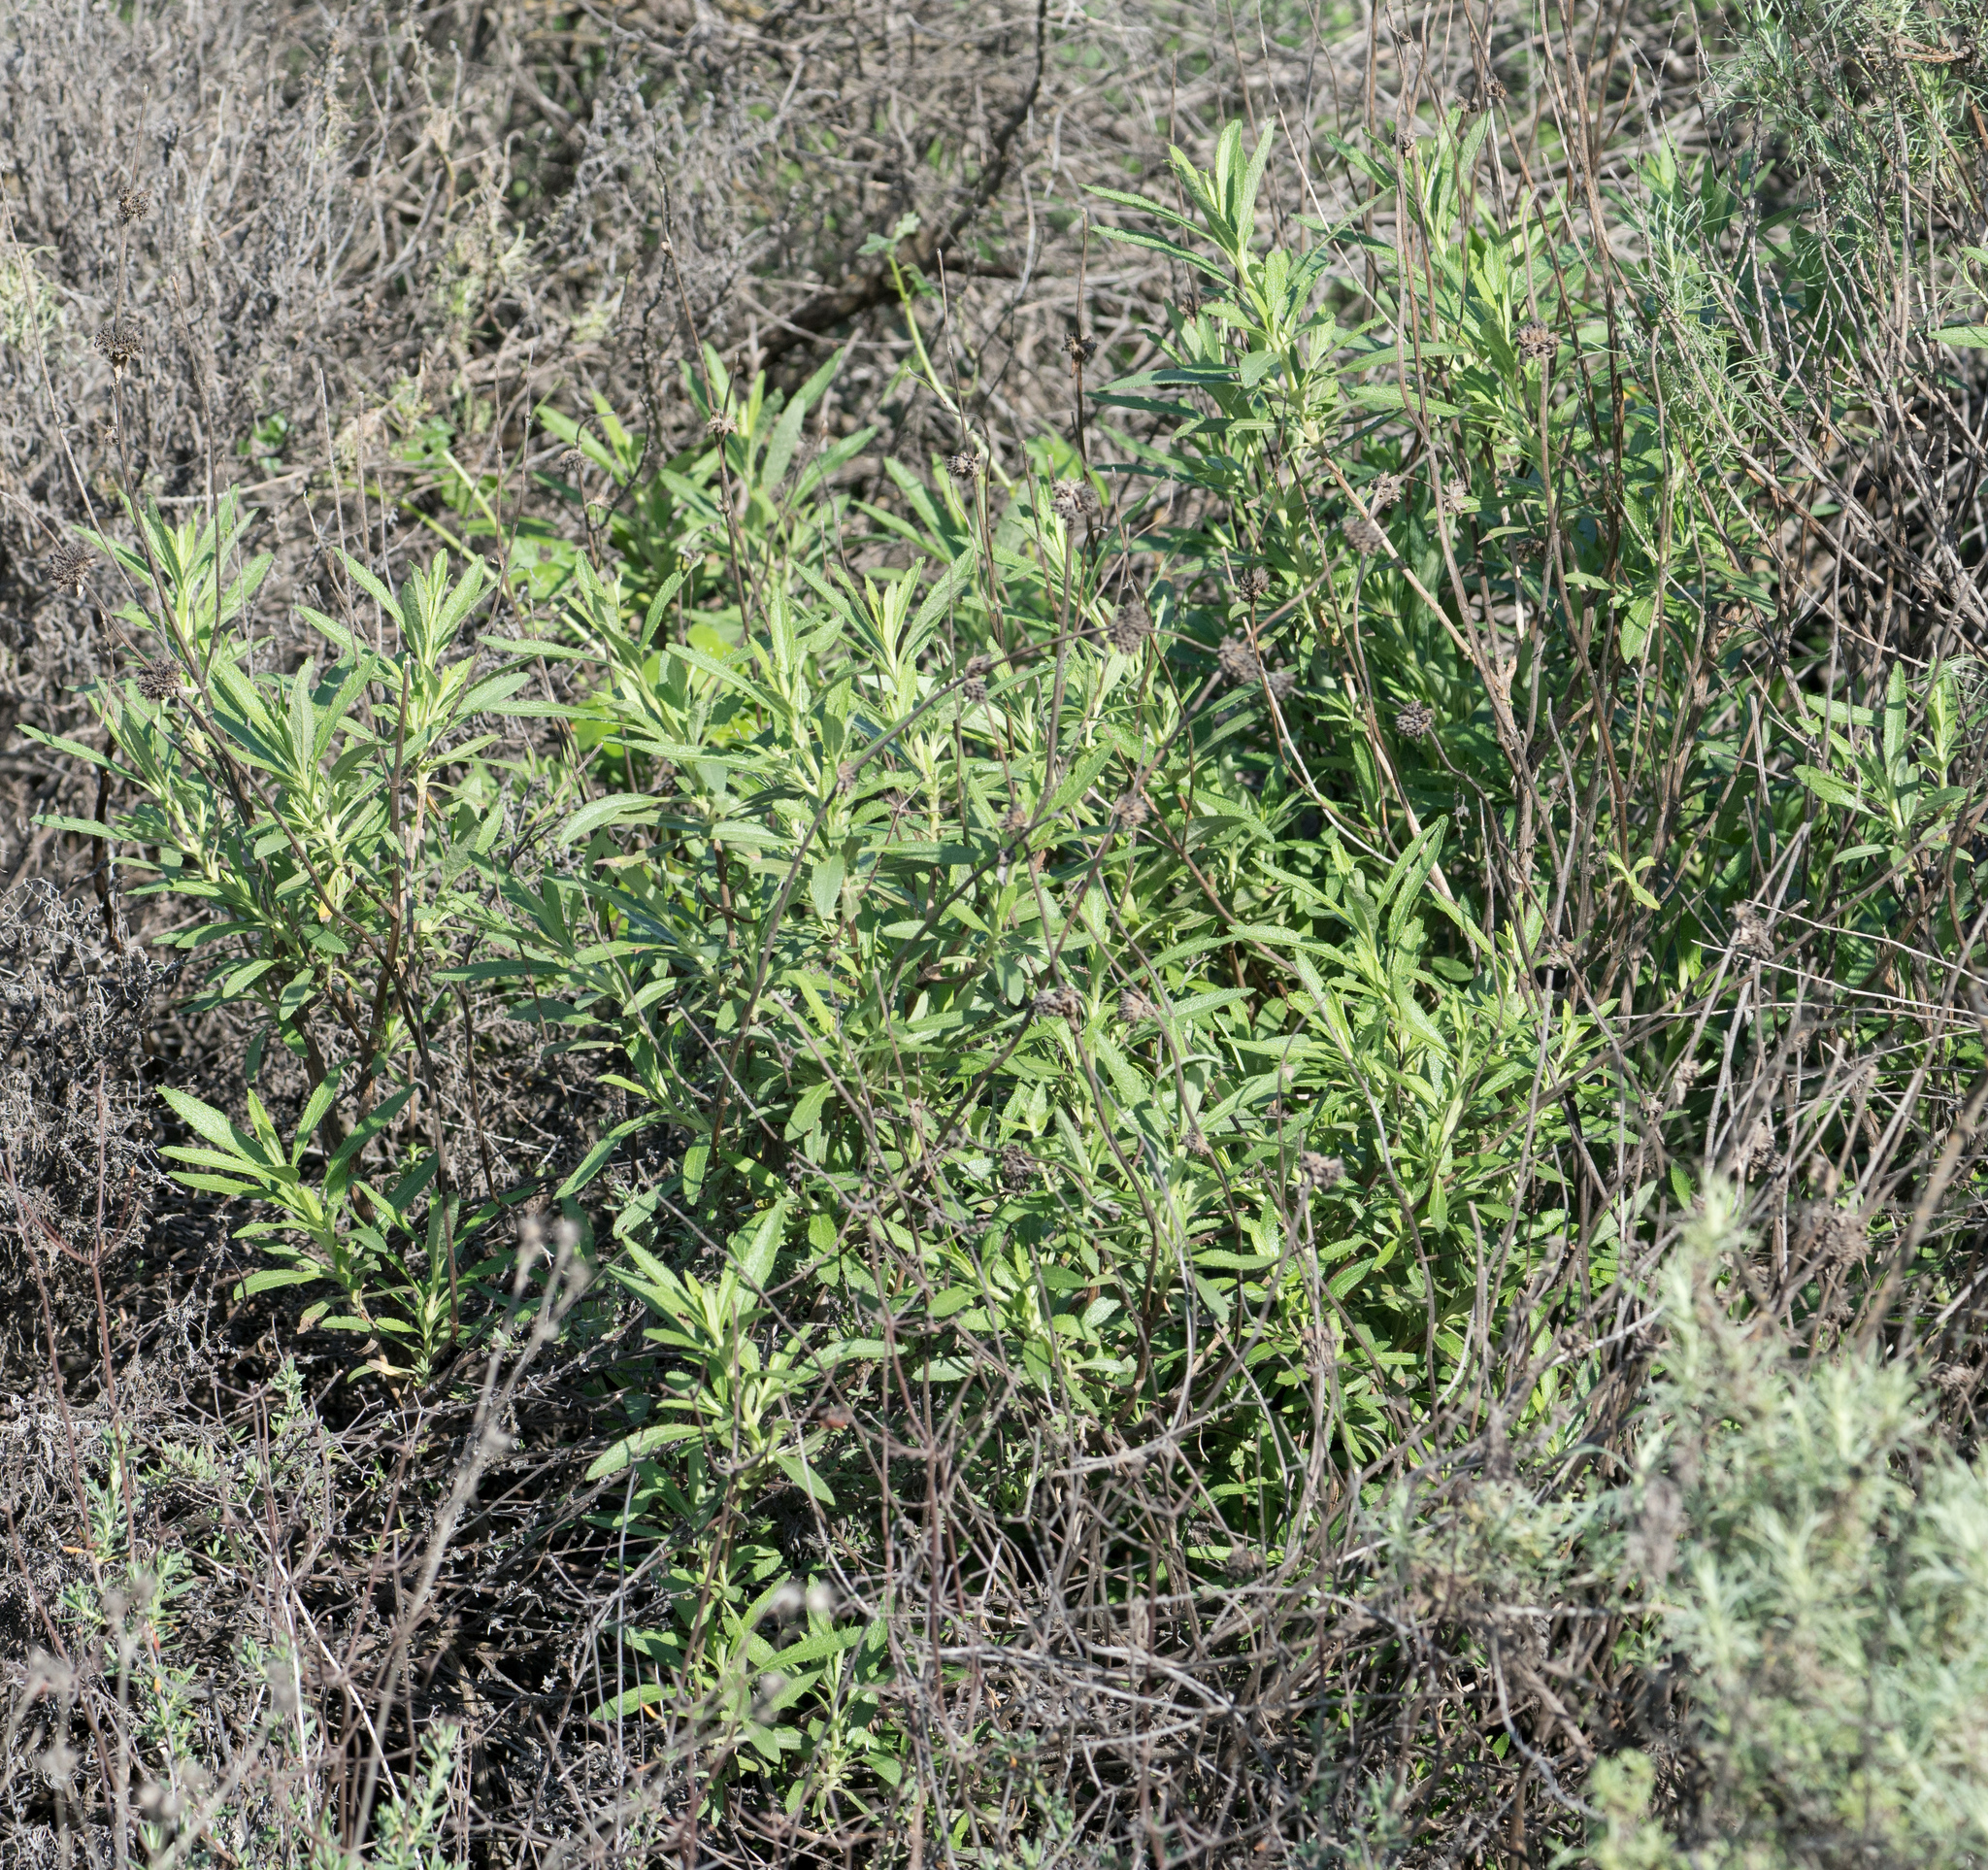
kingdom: Plantae
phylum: Tracheophyta
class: Magnoliopsida
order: Lamiales
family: Lamiaceae
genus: Salvia
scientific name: Salvia mellifera
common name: Black sage
